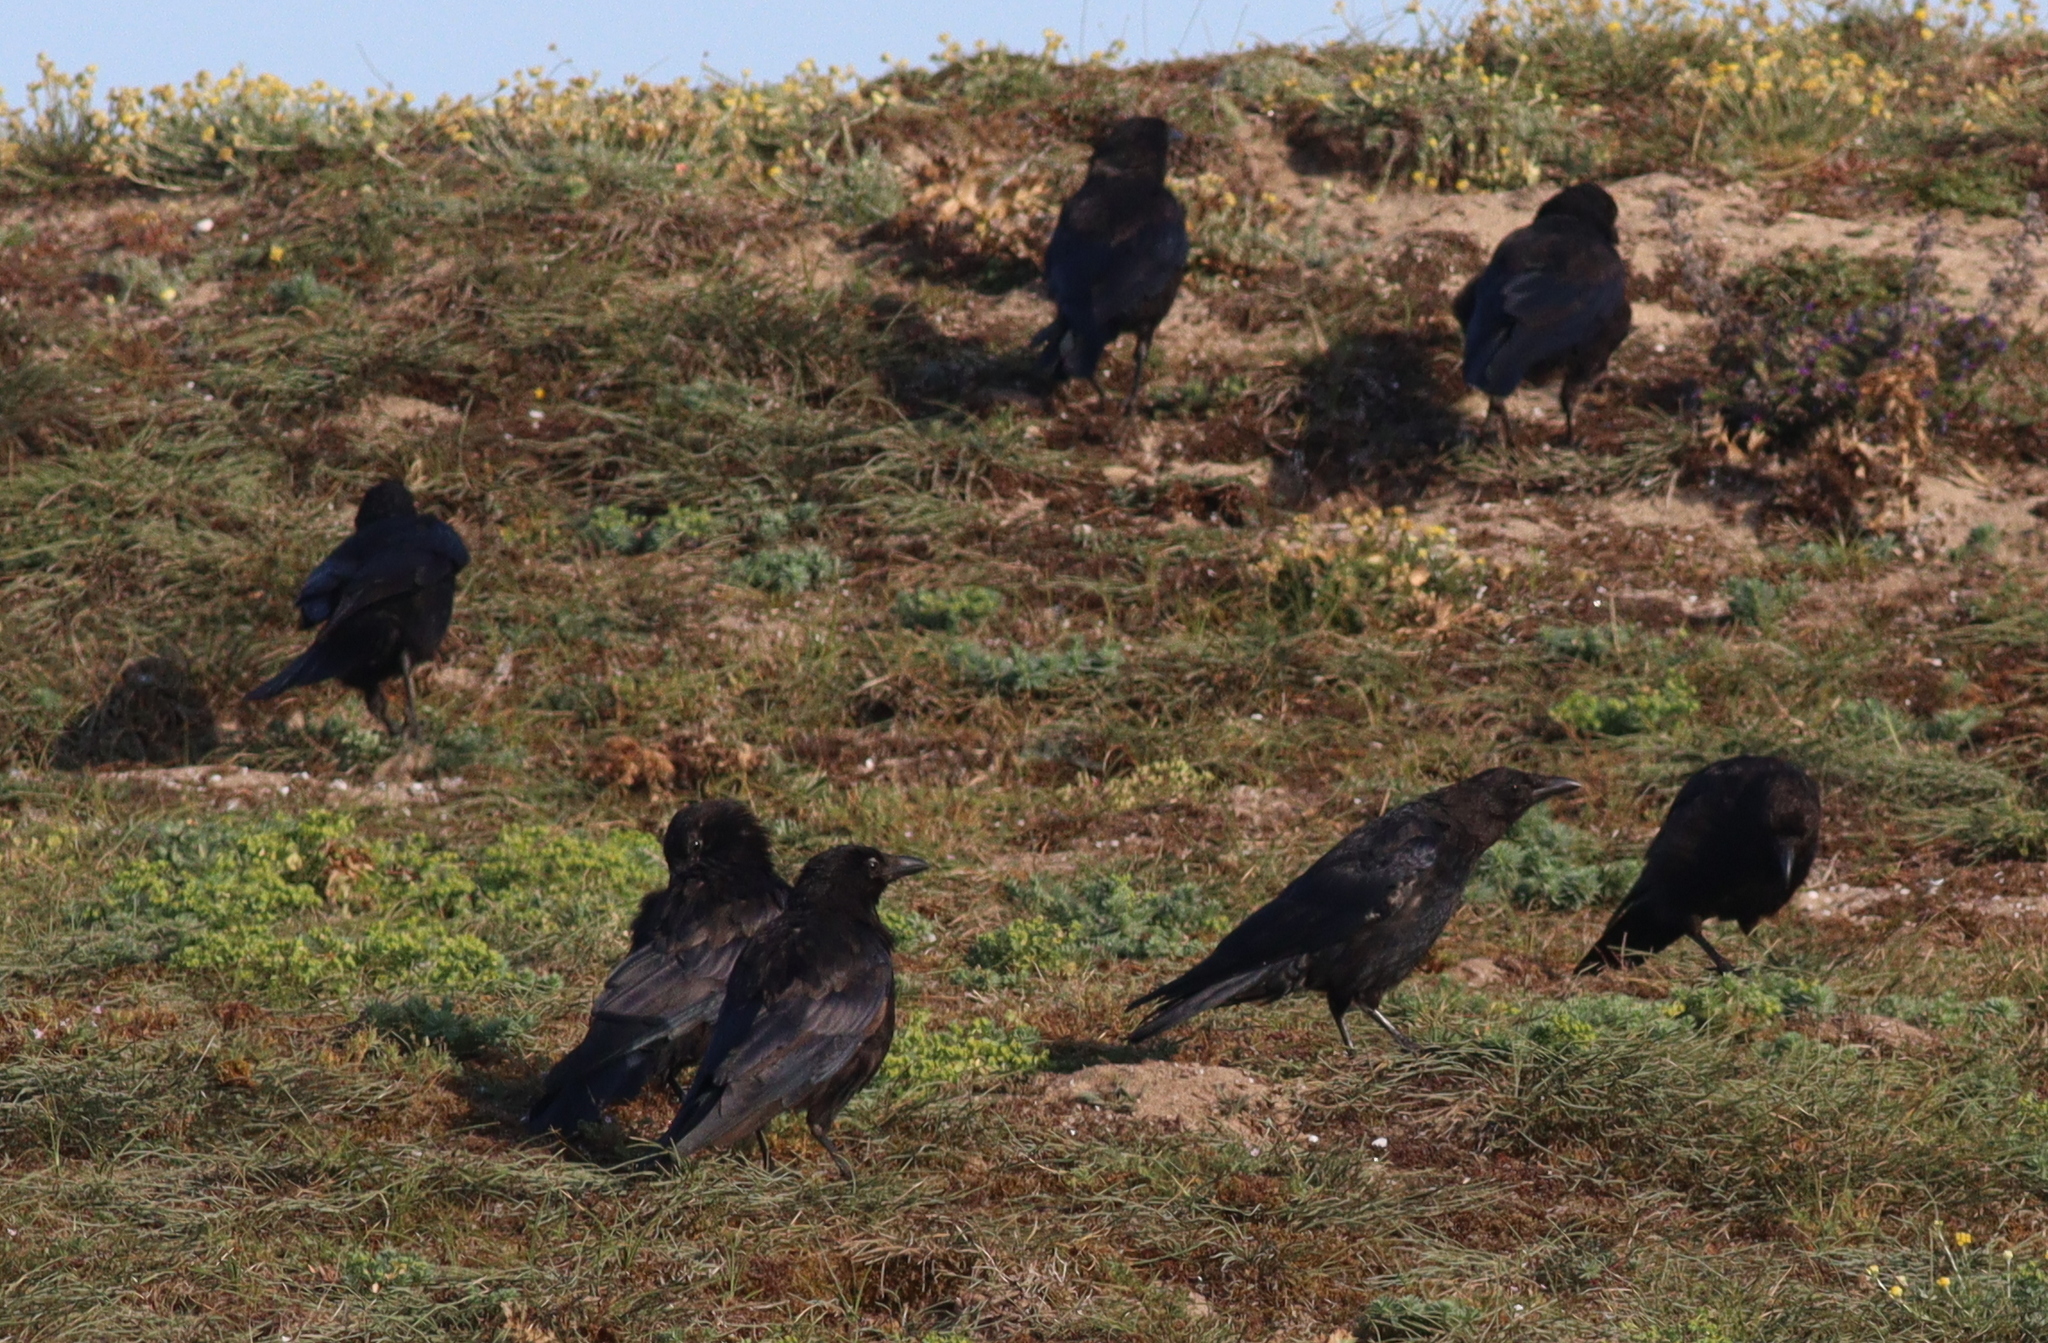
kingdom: Animalia
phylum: Chordata
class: Aves
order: Passeriformes
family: Corvidae
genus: Corvus
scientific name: Corvus corone
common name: Carrion crow
